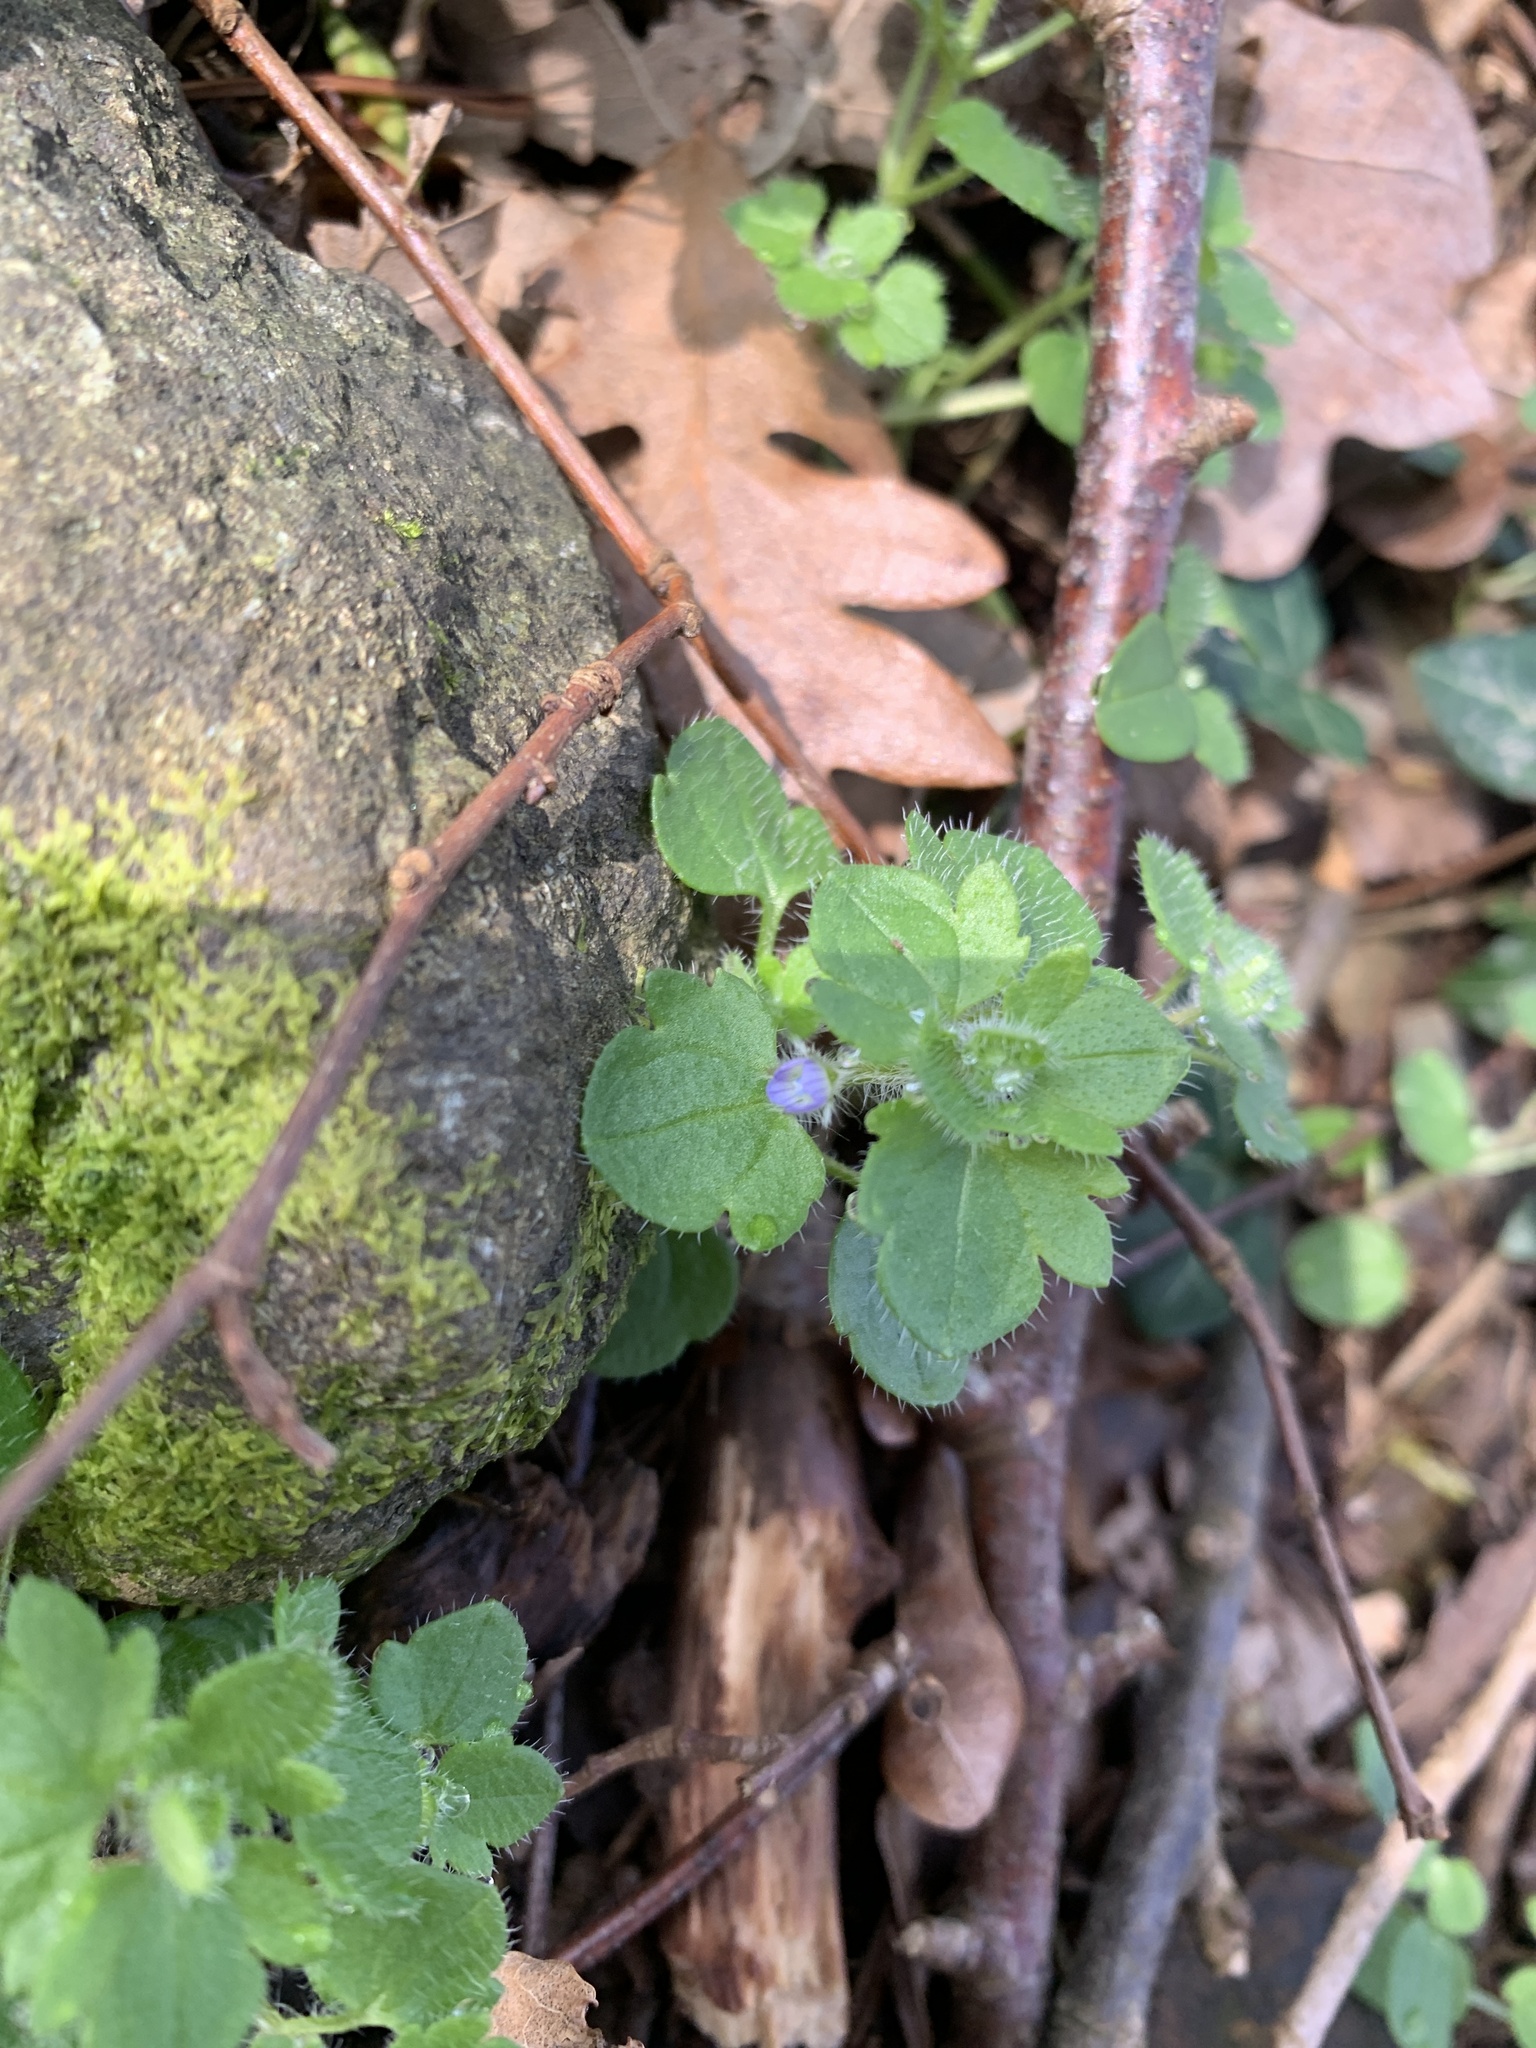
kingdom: Plantae
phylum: Tracheophyta
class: Magnoliopsida
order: Lamiales
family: Plantaginaceae
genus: Veronica
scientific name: Veronica hederifolia
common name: Ivy-leaved speedwell
